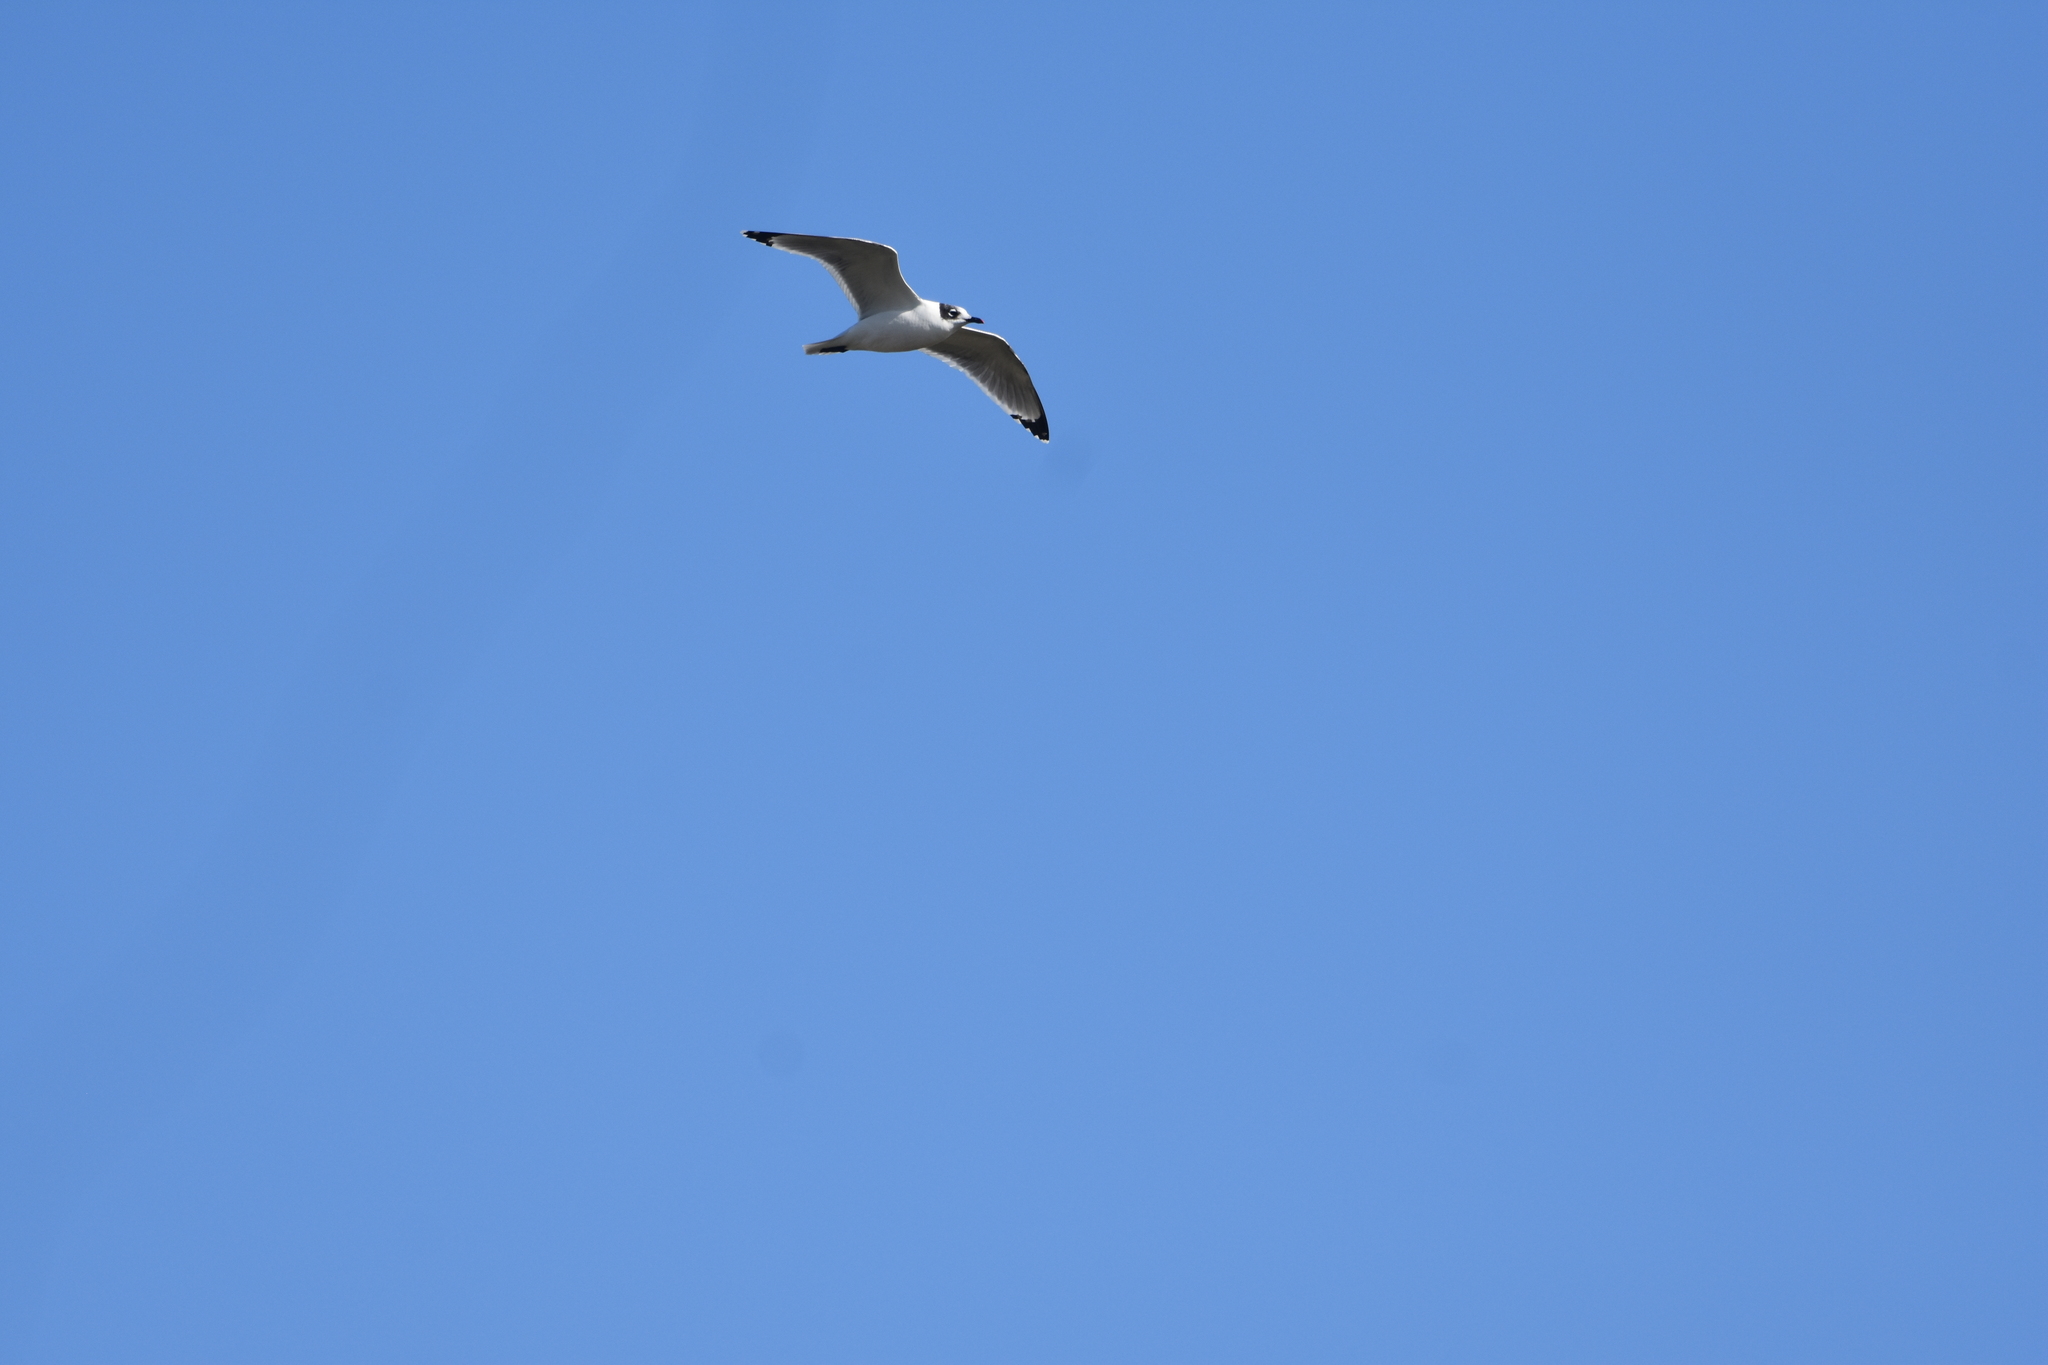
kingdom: Animalia
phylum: Chordata
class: Aves
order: Charadriiformes
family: Laridae
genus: Leucophaeus
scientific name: Leucophaeus pipixcan
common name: Franklin's gull
